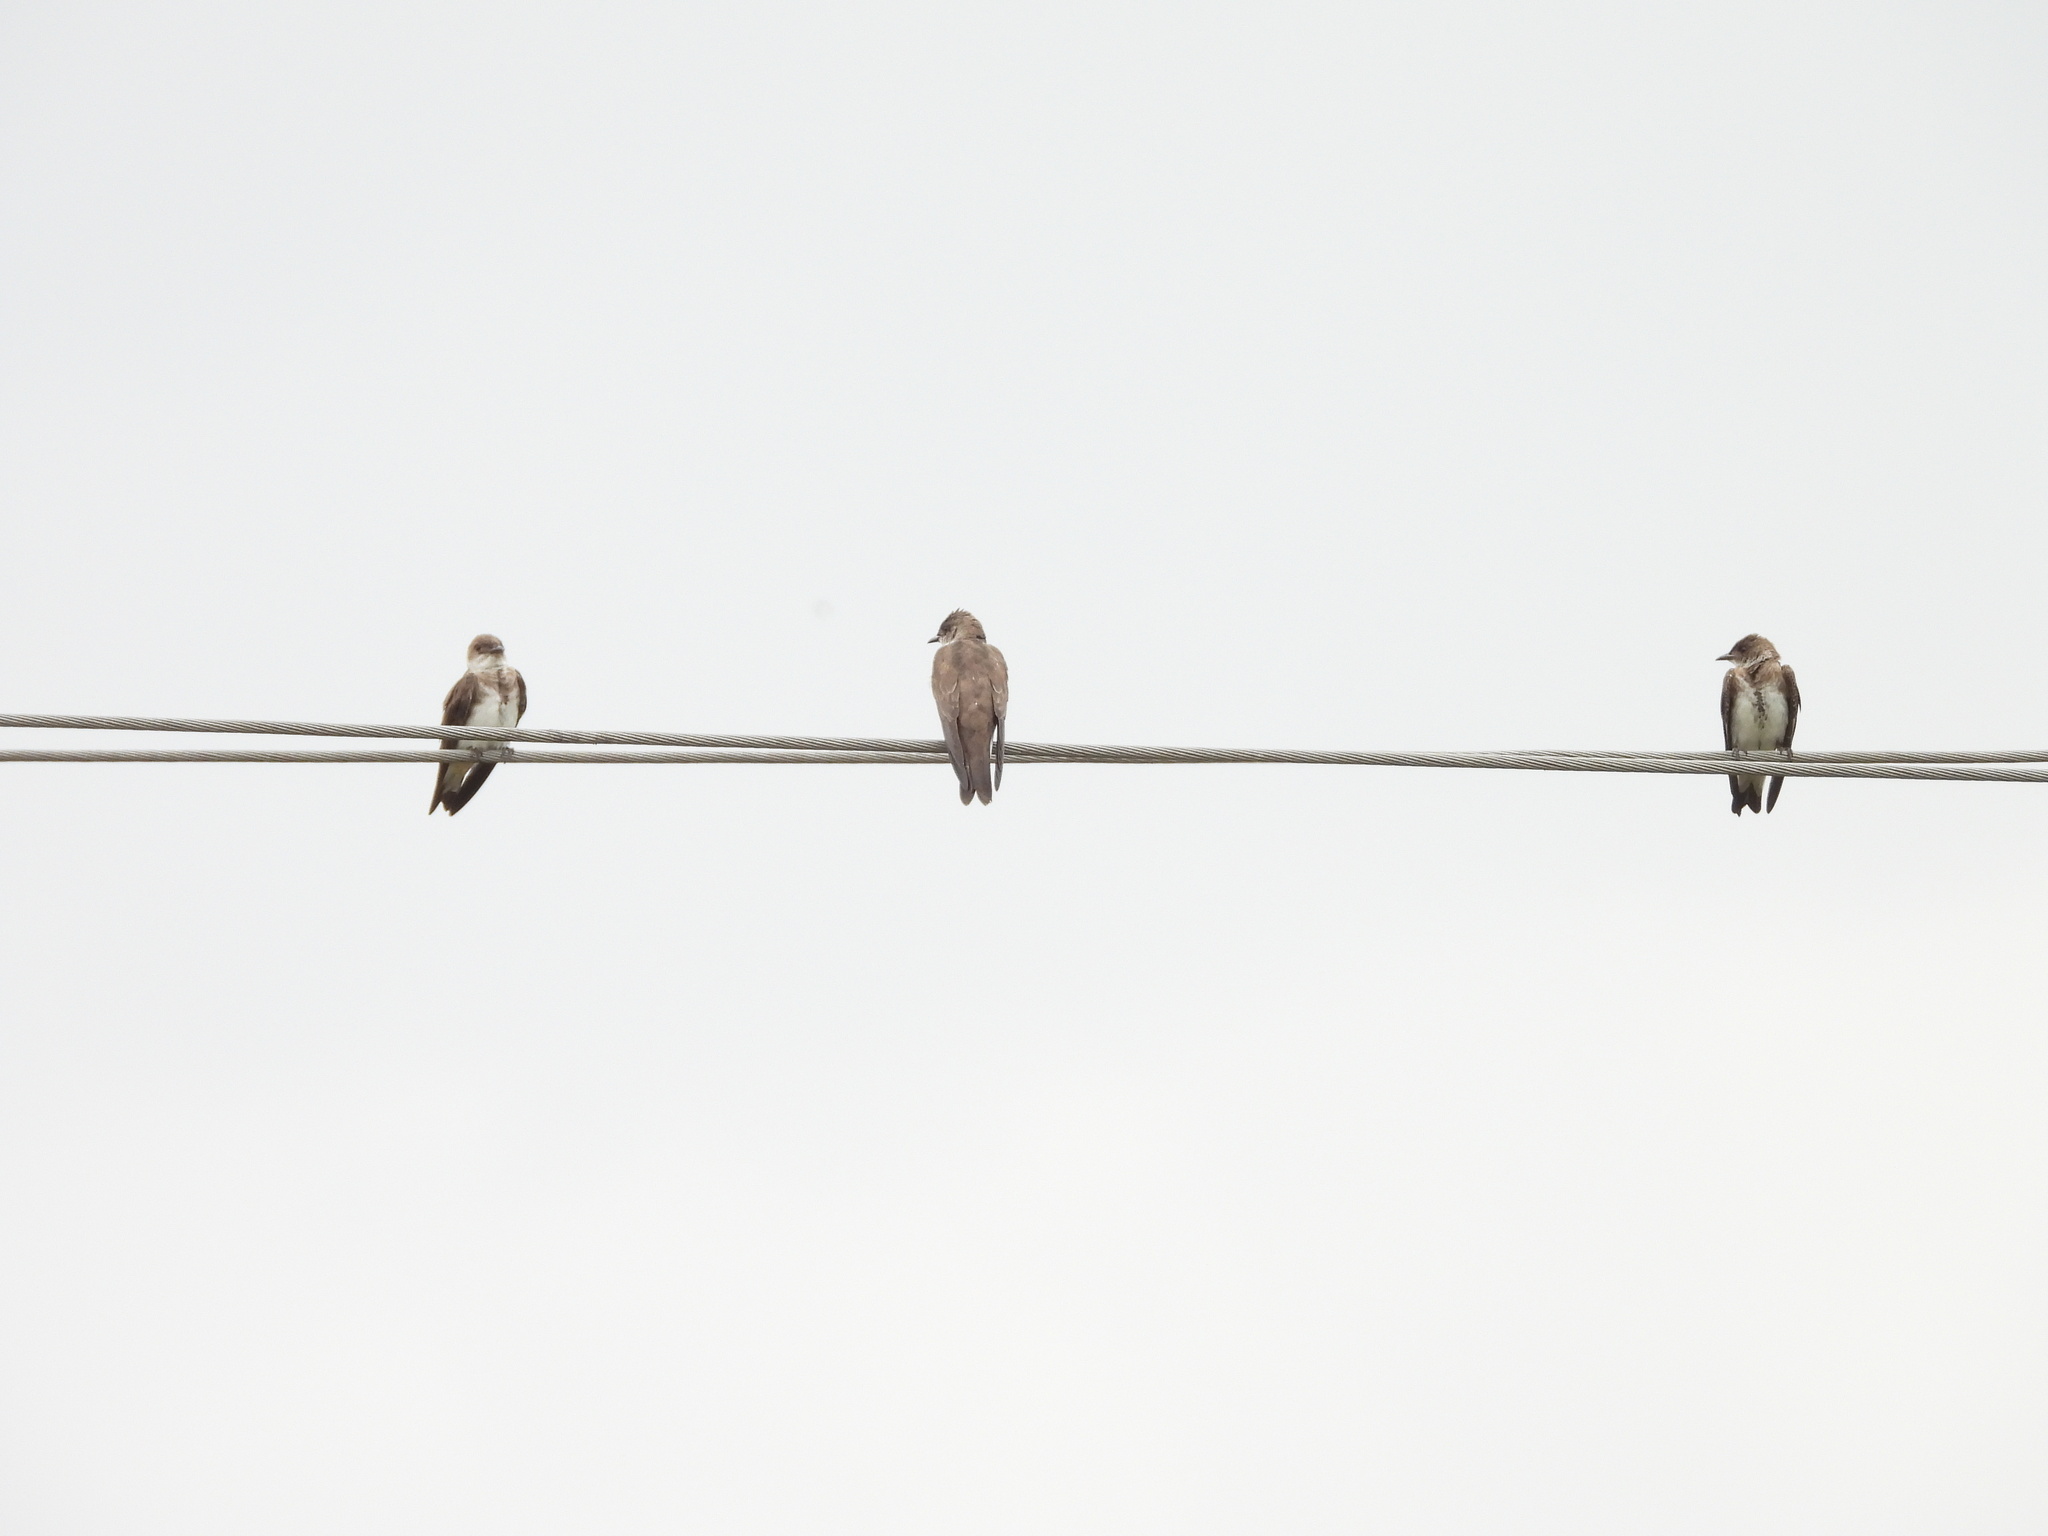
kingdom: Animalia
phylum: Chordata
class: Aves
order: Passeriformes
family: Hirundinidae
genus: Progne
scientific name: Progne tapera
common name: Brown-chested martin
